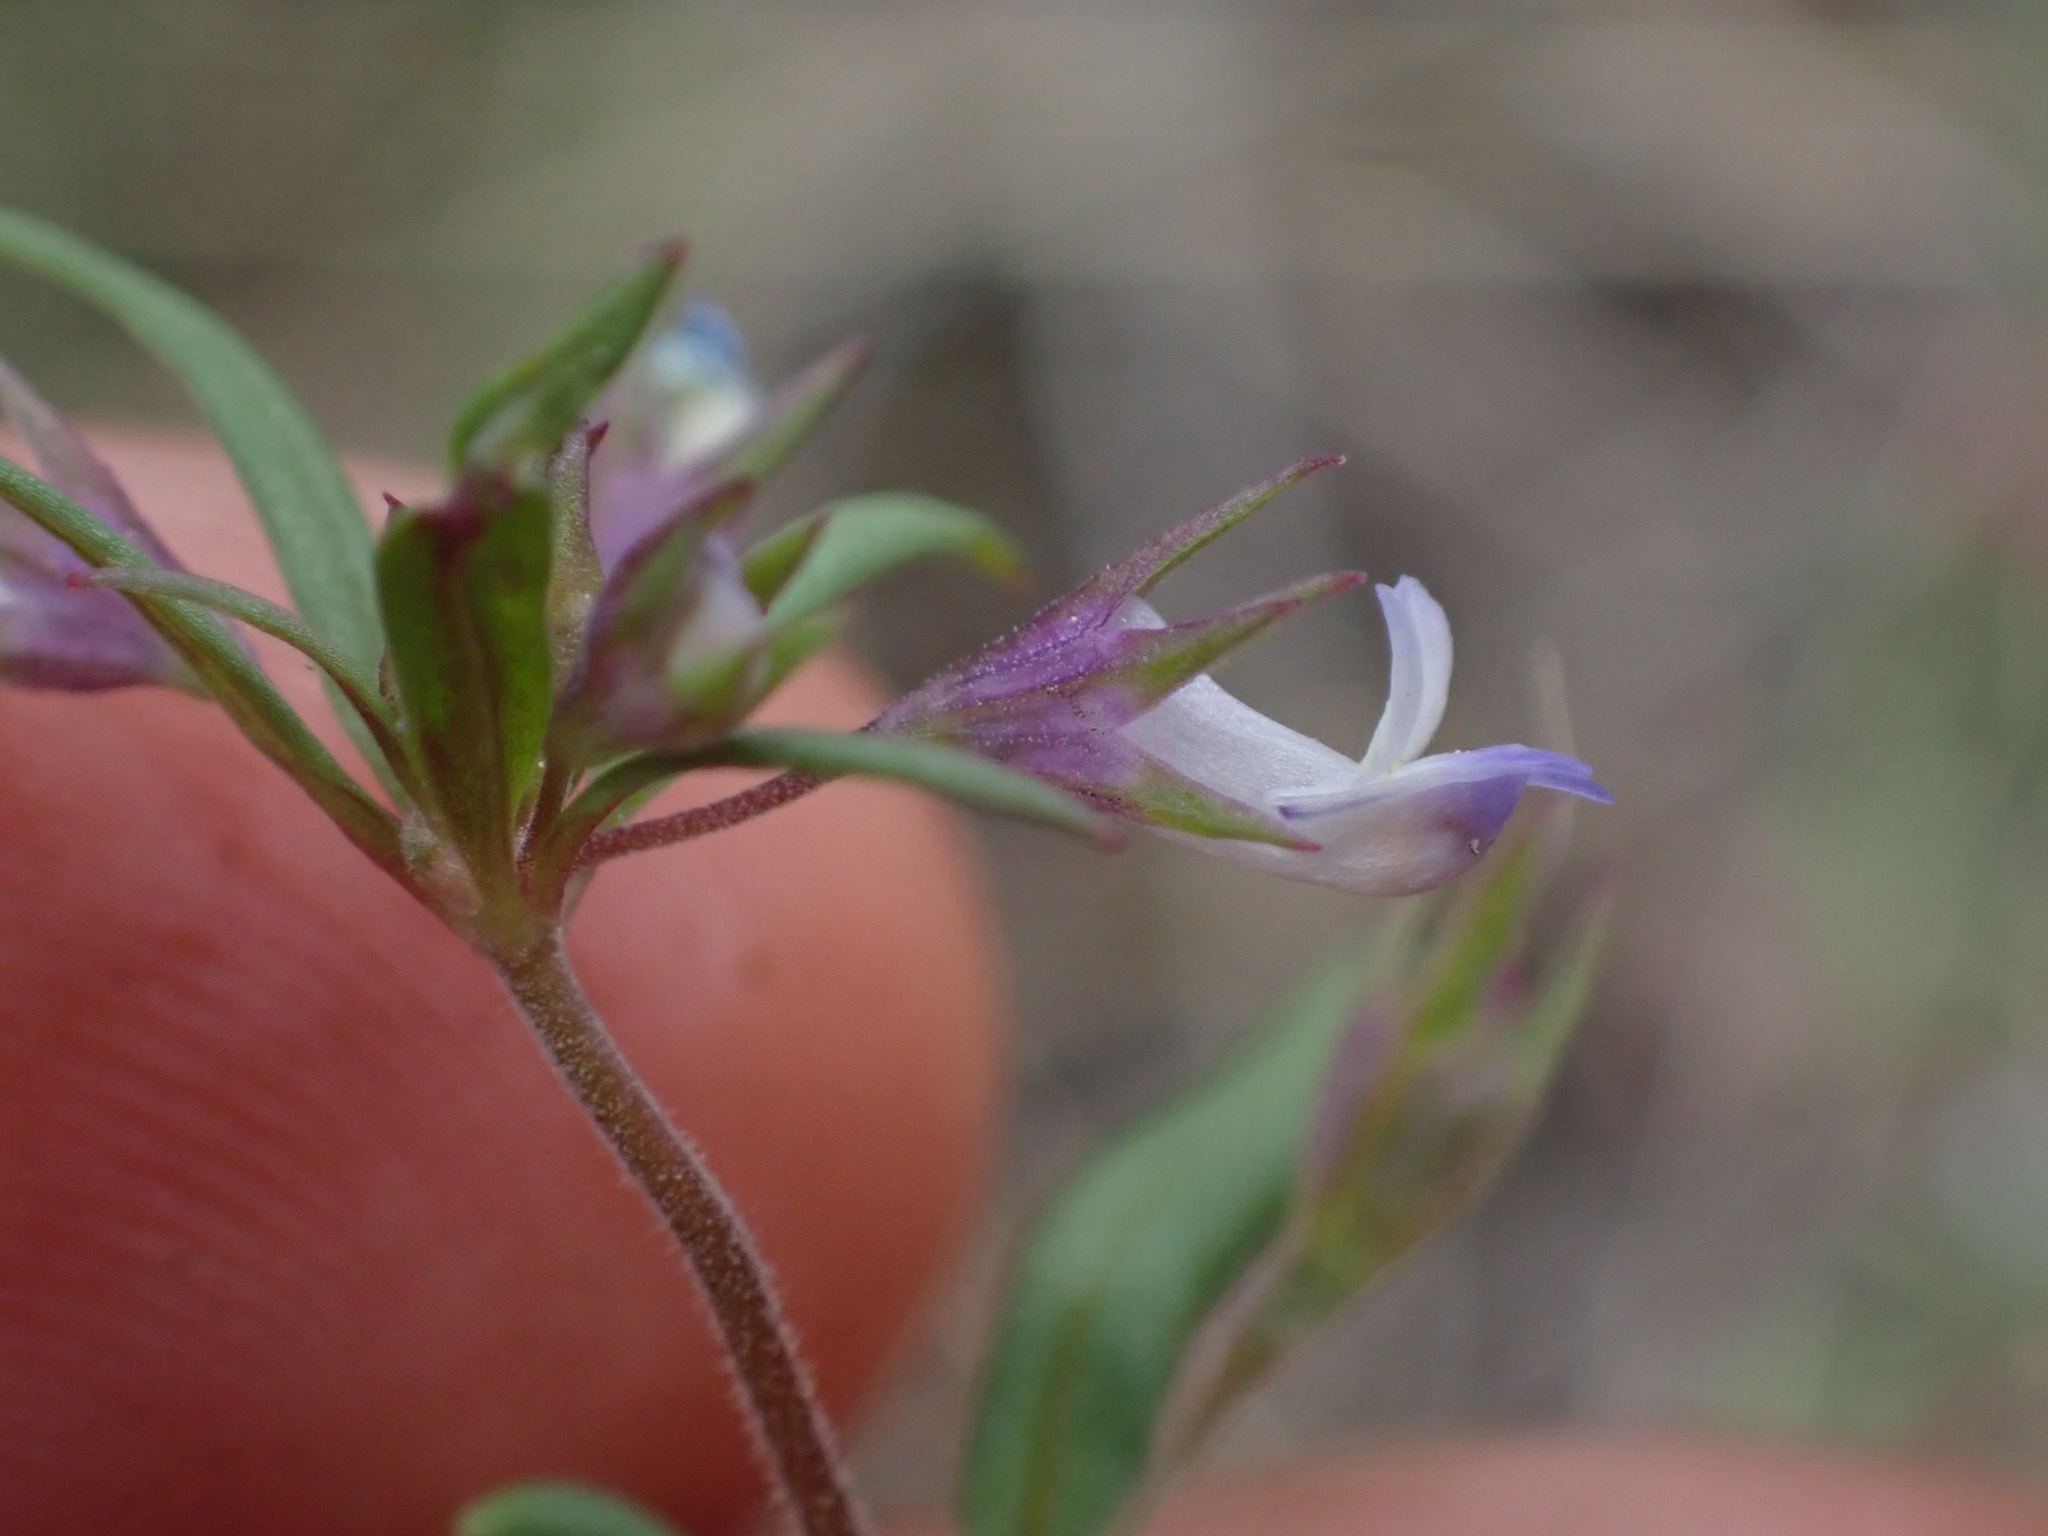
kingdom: Plantae
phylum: Tracheophyta
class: Magnoliopsida
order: Lamiales
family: Plantaginaceae
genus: Collinsia
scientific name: Collinsia parviflora
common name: Blue-lips
